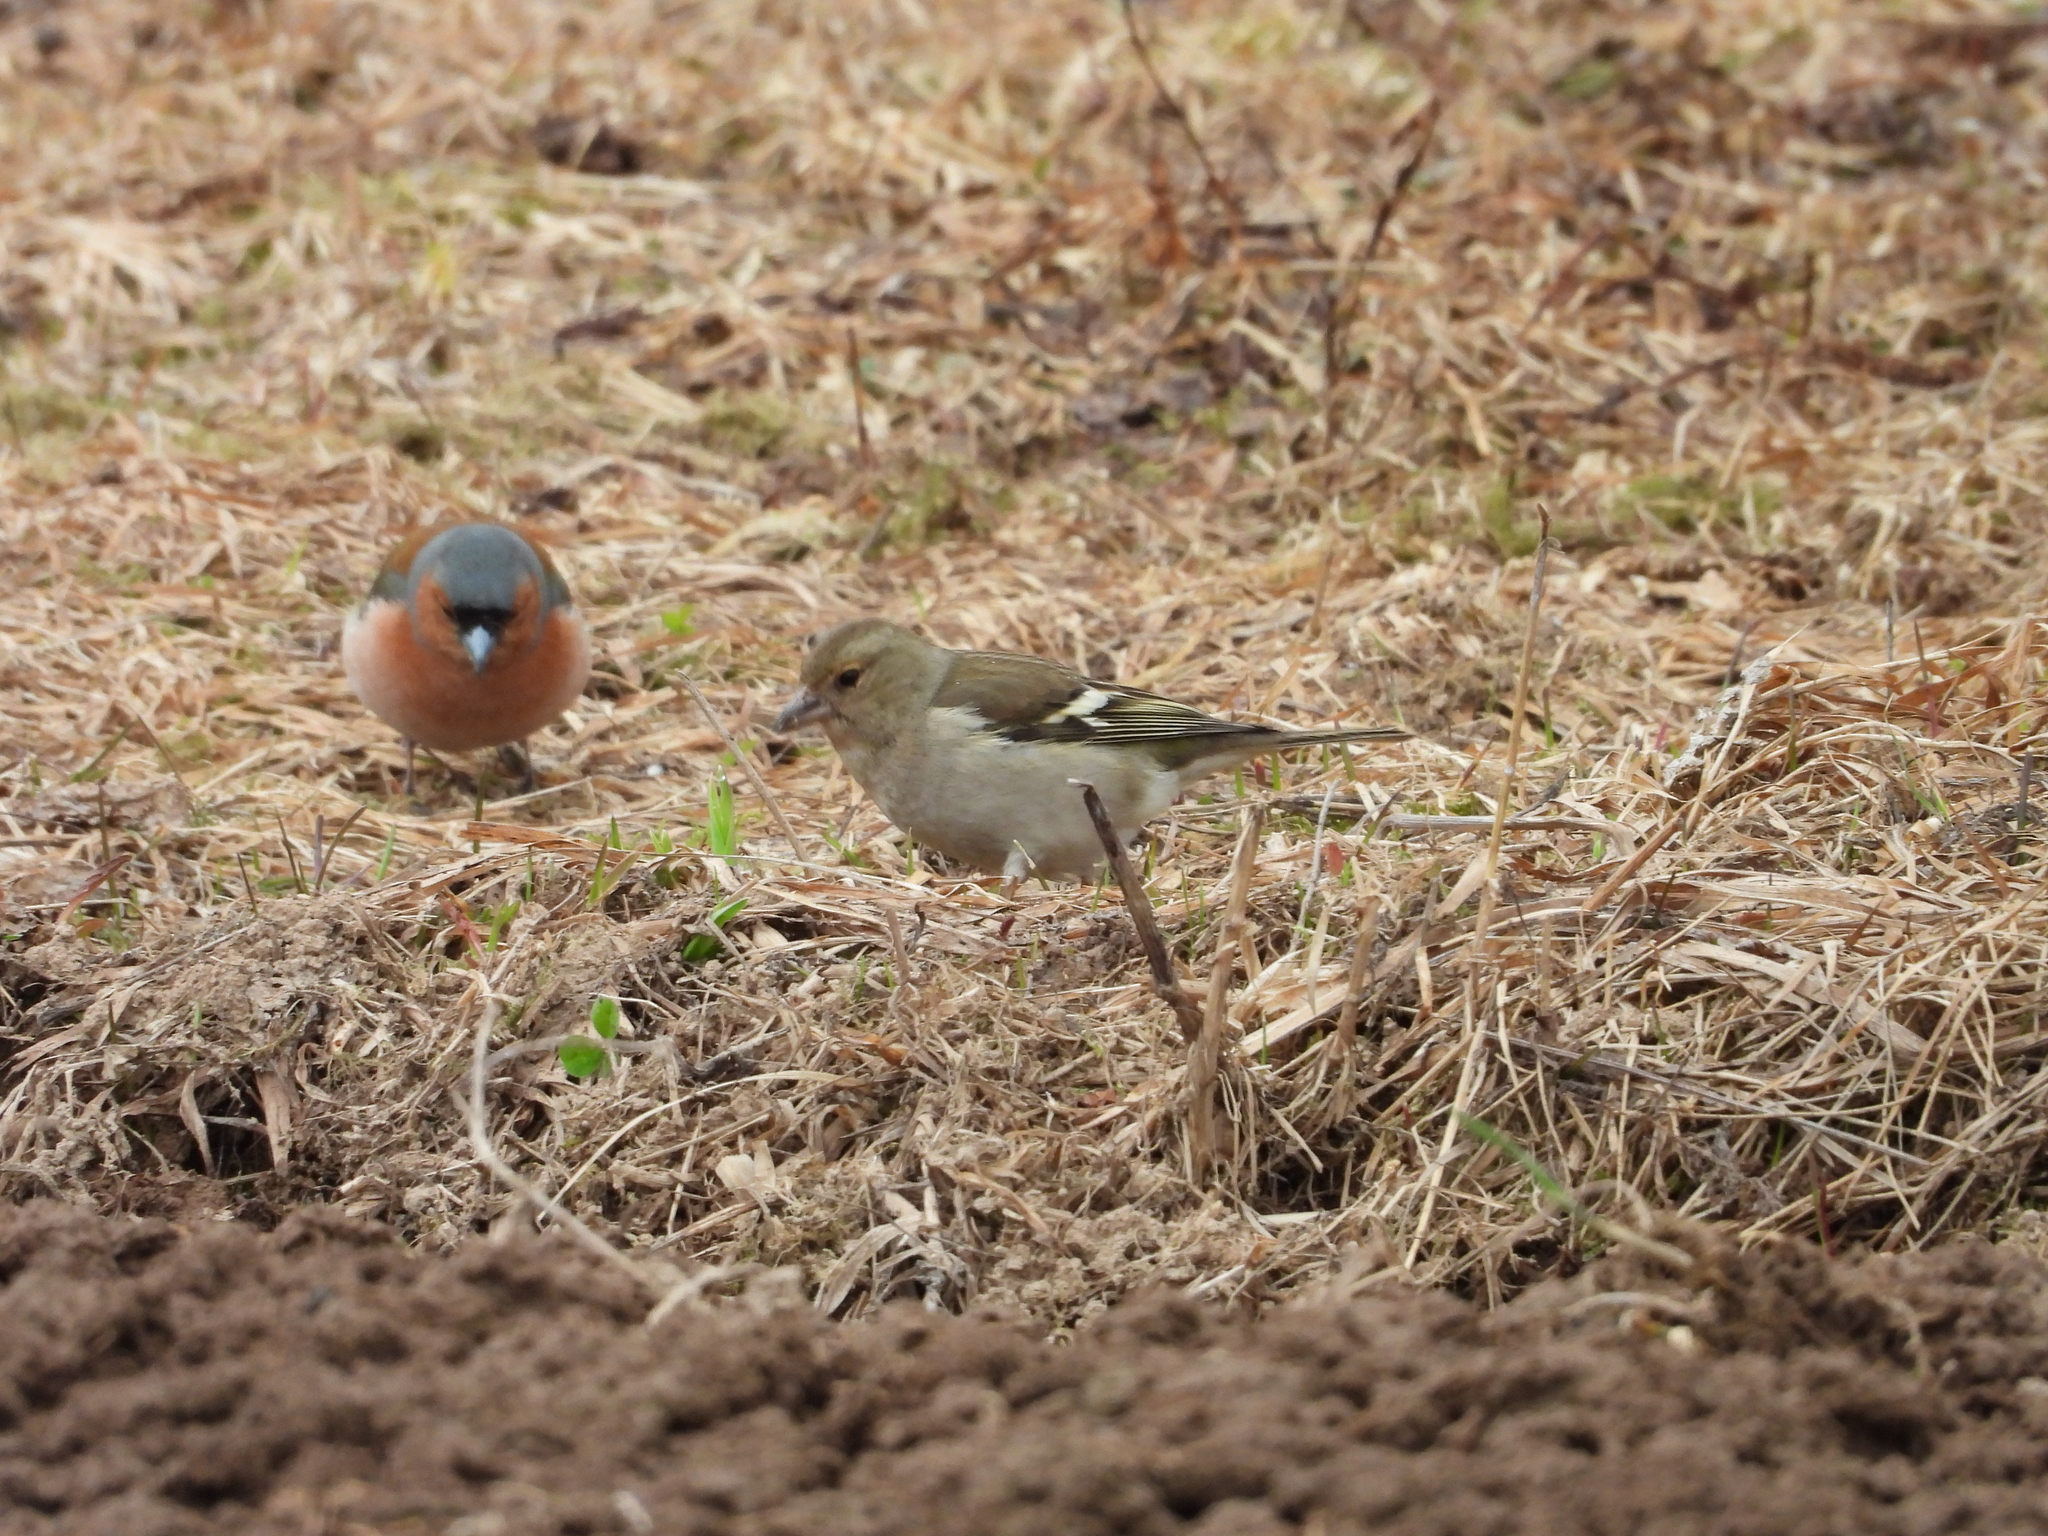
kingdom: Animalia
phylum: Chordata
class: Aves
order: Passeriformes
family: Fringillidae
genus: Fringilla
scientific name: Fringilla coelebs
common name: Common chaffinch
